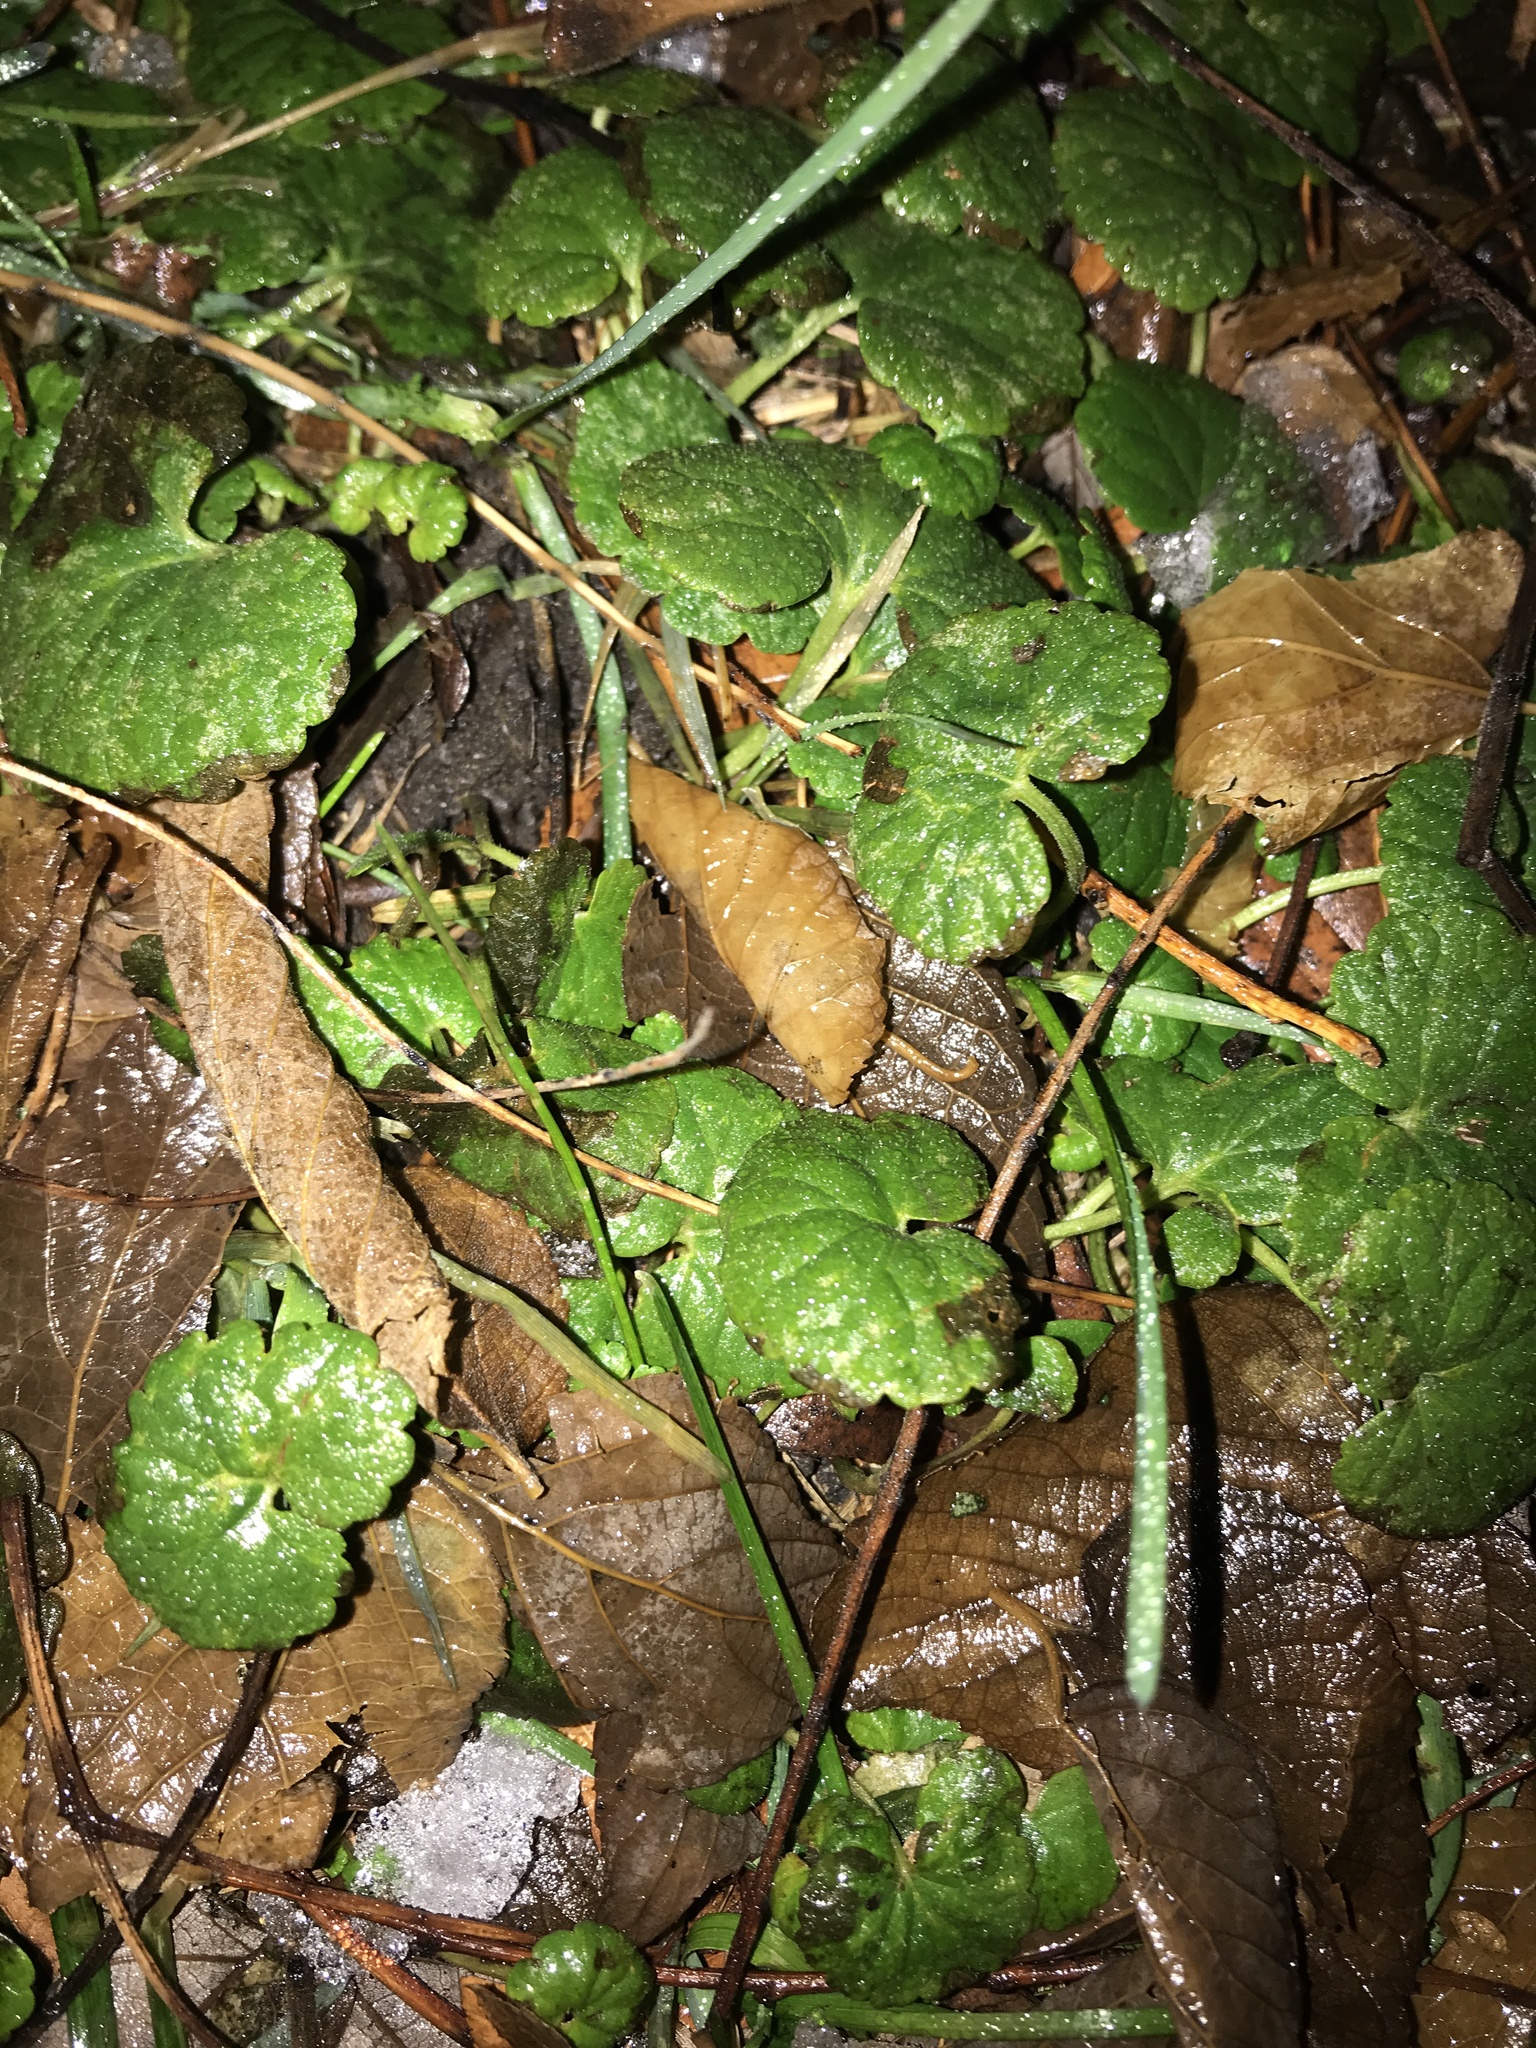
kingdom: Plantae
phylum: Tracheophyta
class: Magnoliopsida
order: Lamiales
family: Lamiaceae
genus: Glechoma
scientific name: Glechoma hederacea
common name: Ground ivy
